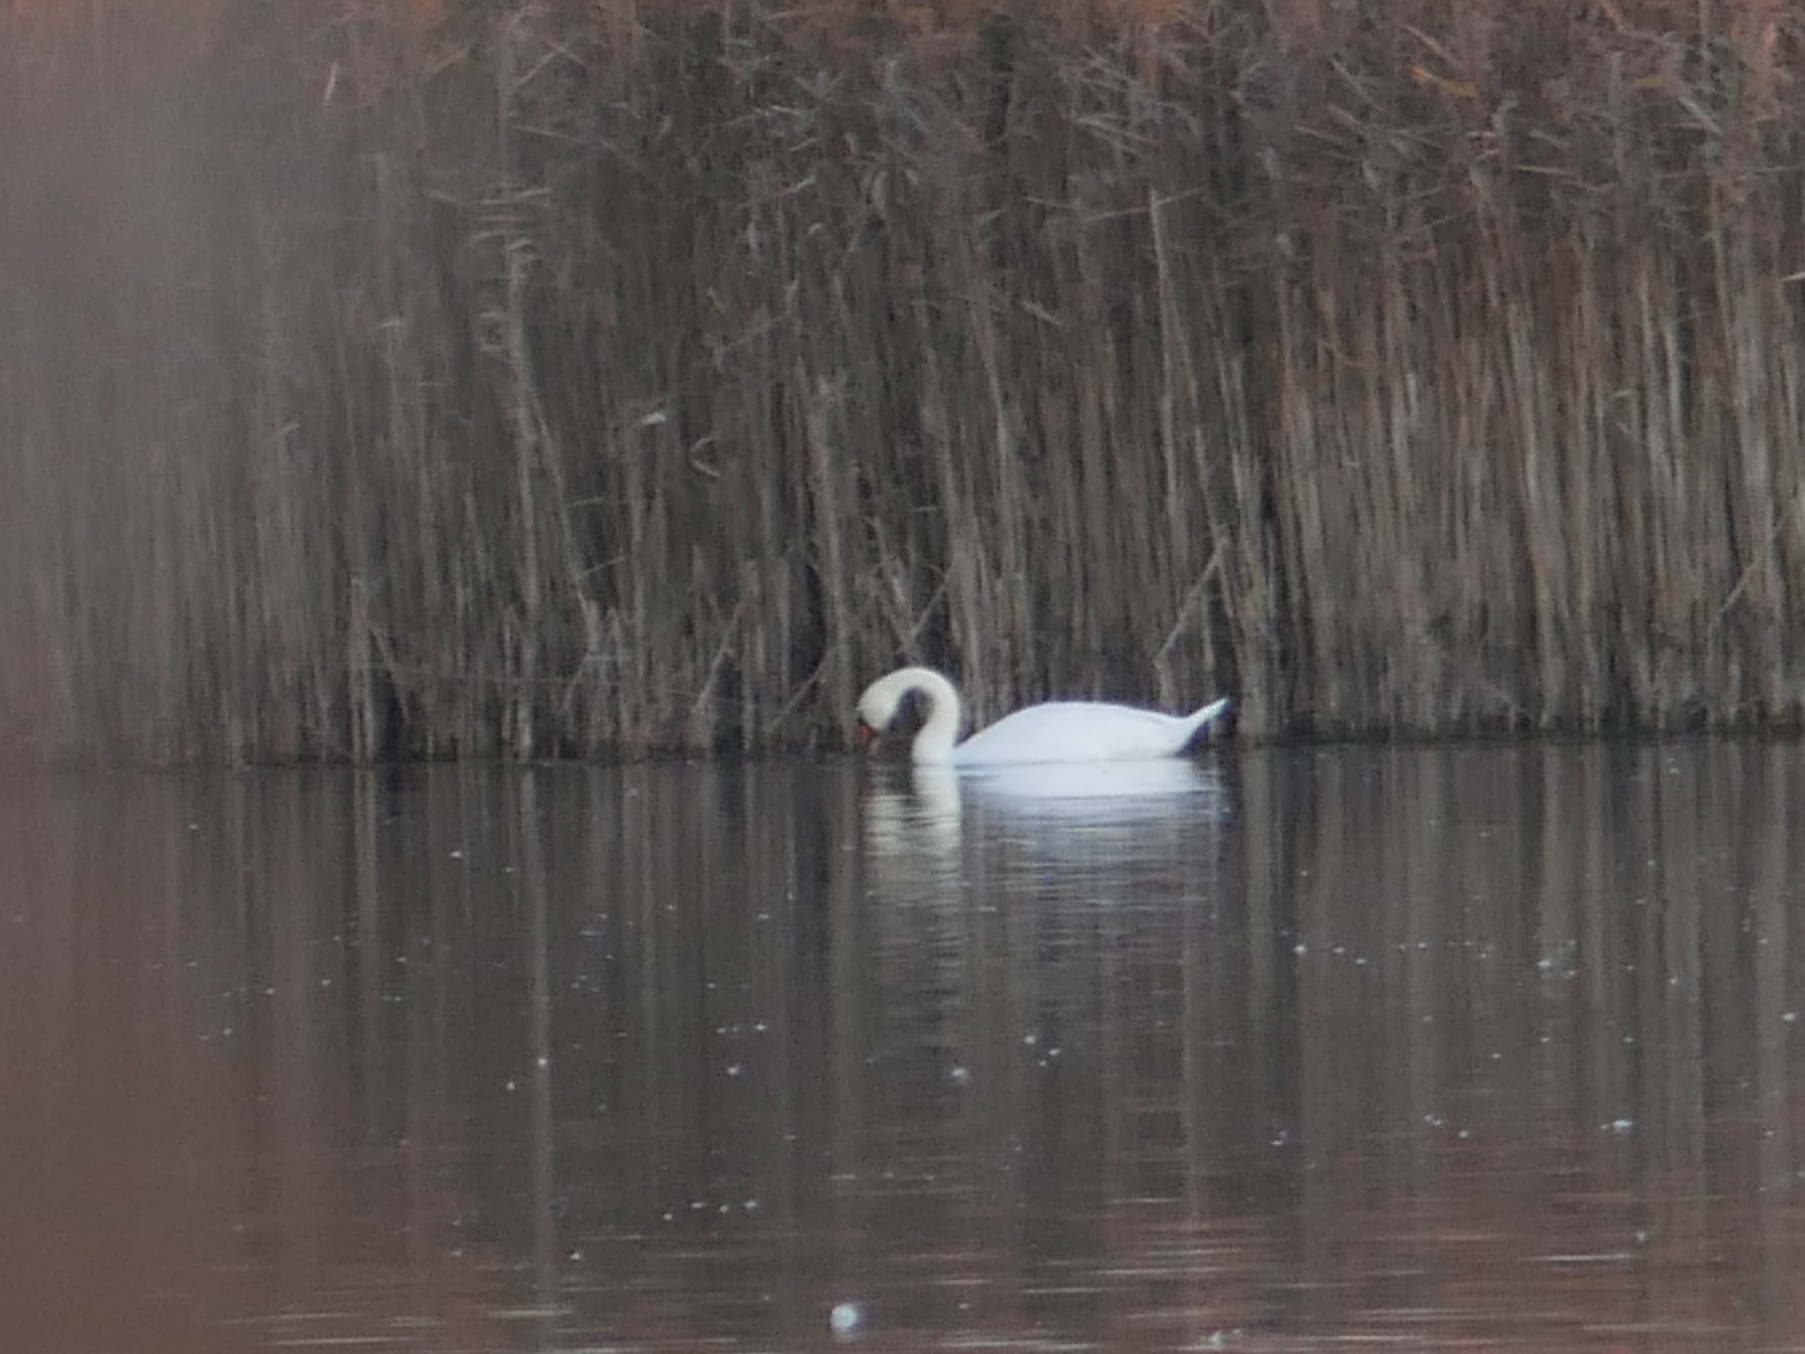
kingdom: Animalia
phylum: Chordata
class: Aves
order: Anseriformes
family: Anatidae
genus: Cygnus
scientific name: Cygnus olor
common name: Mute swan
